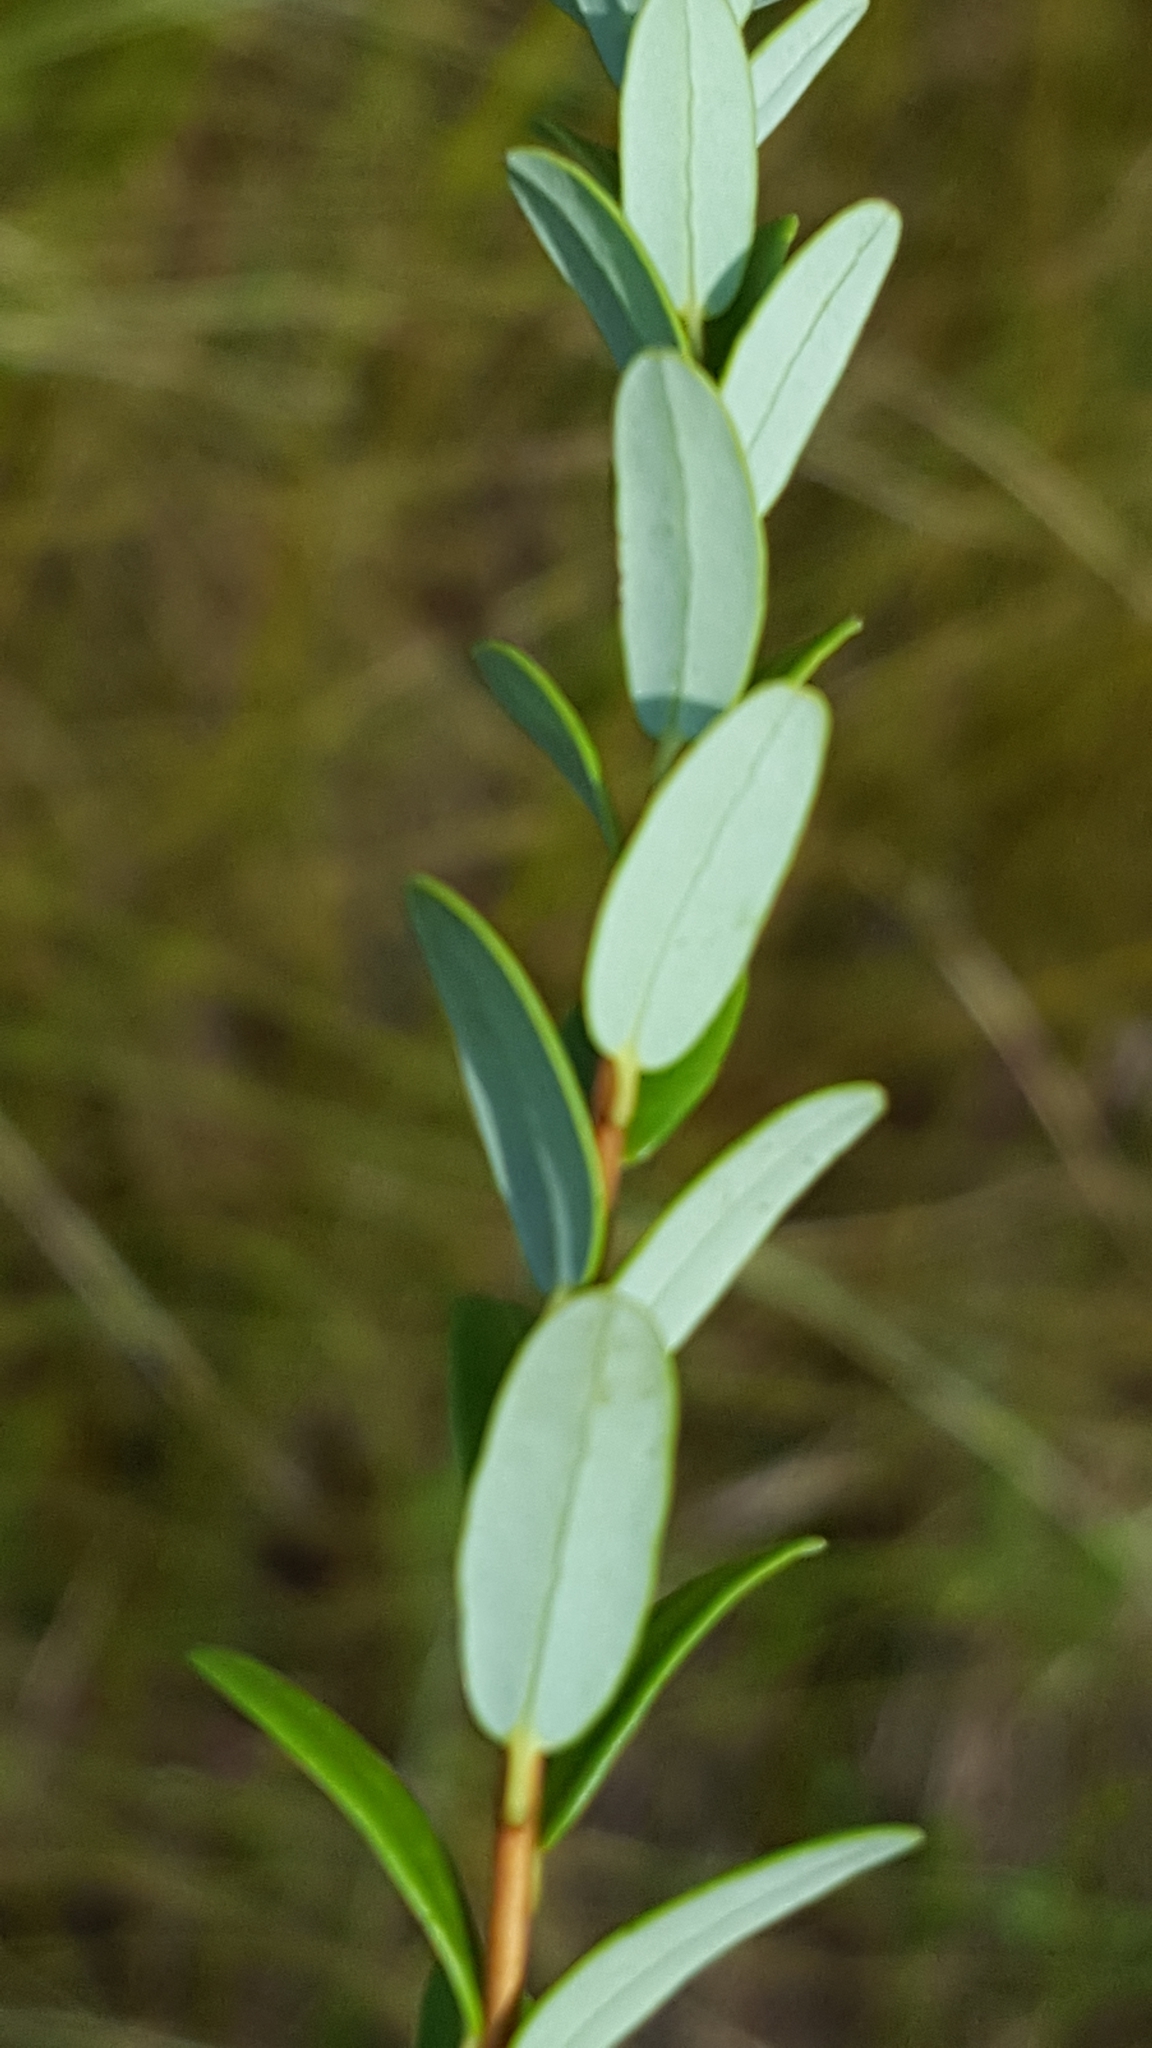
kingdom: Plantae
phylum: Tracheophyta
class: Magnoliopsida
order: Ericales
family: Ericaceae
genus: Vaccinium
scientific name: Vaccinium macrocarpon
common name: American cranberry
